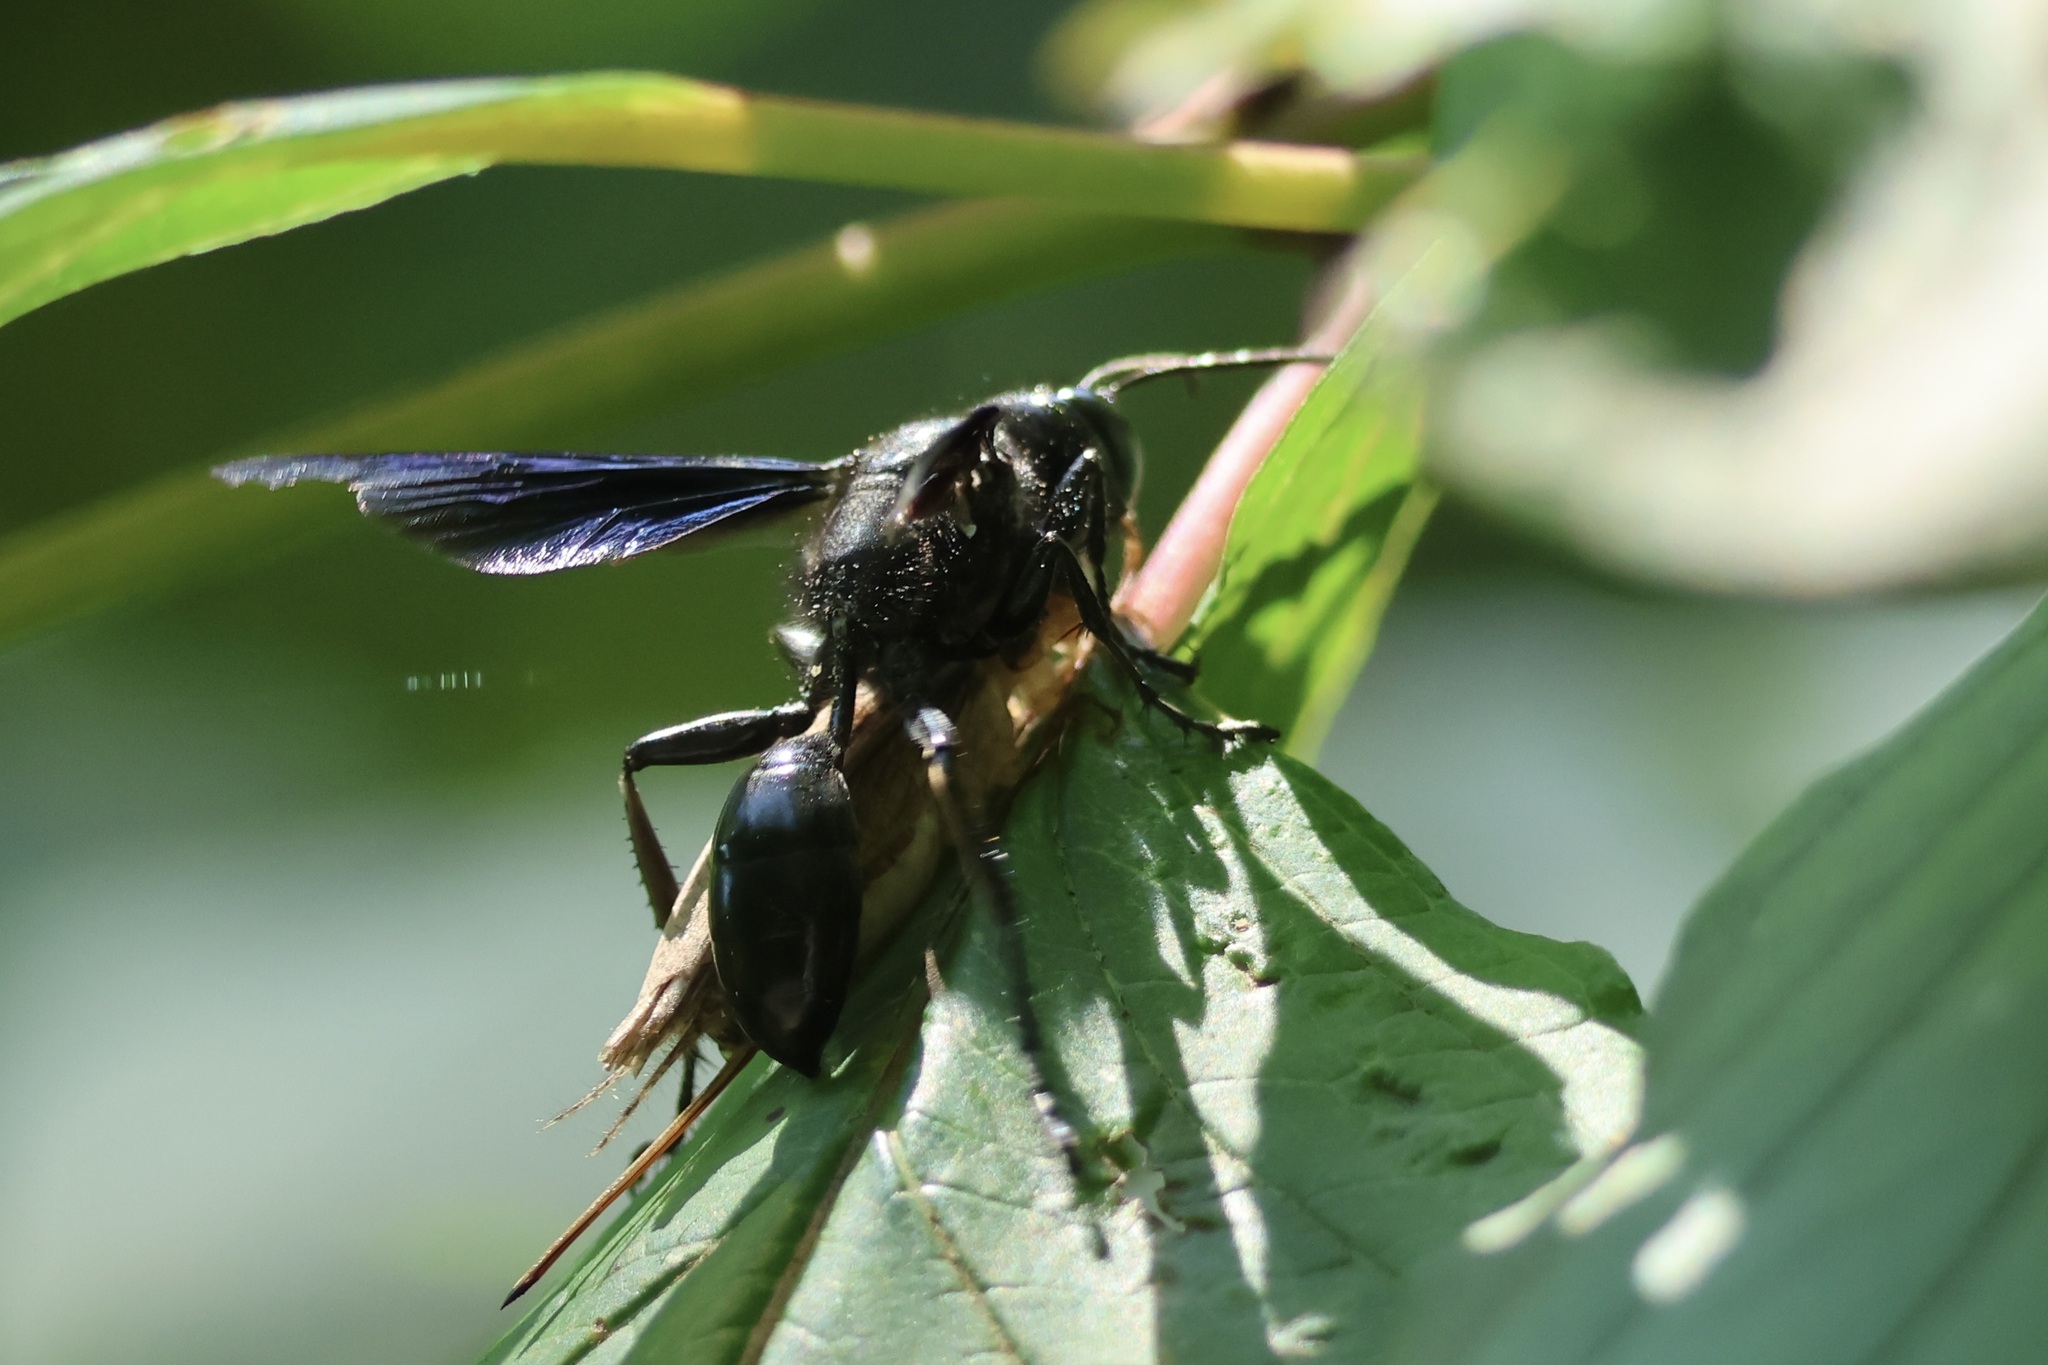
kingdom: Animalia
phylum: Arthropoda
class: Insecta
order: Hymenoptera
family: Sphecidae
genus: Isodontia
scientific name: Isodontia philadelphica
